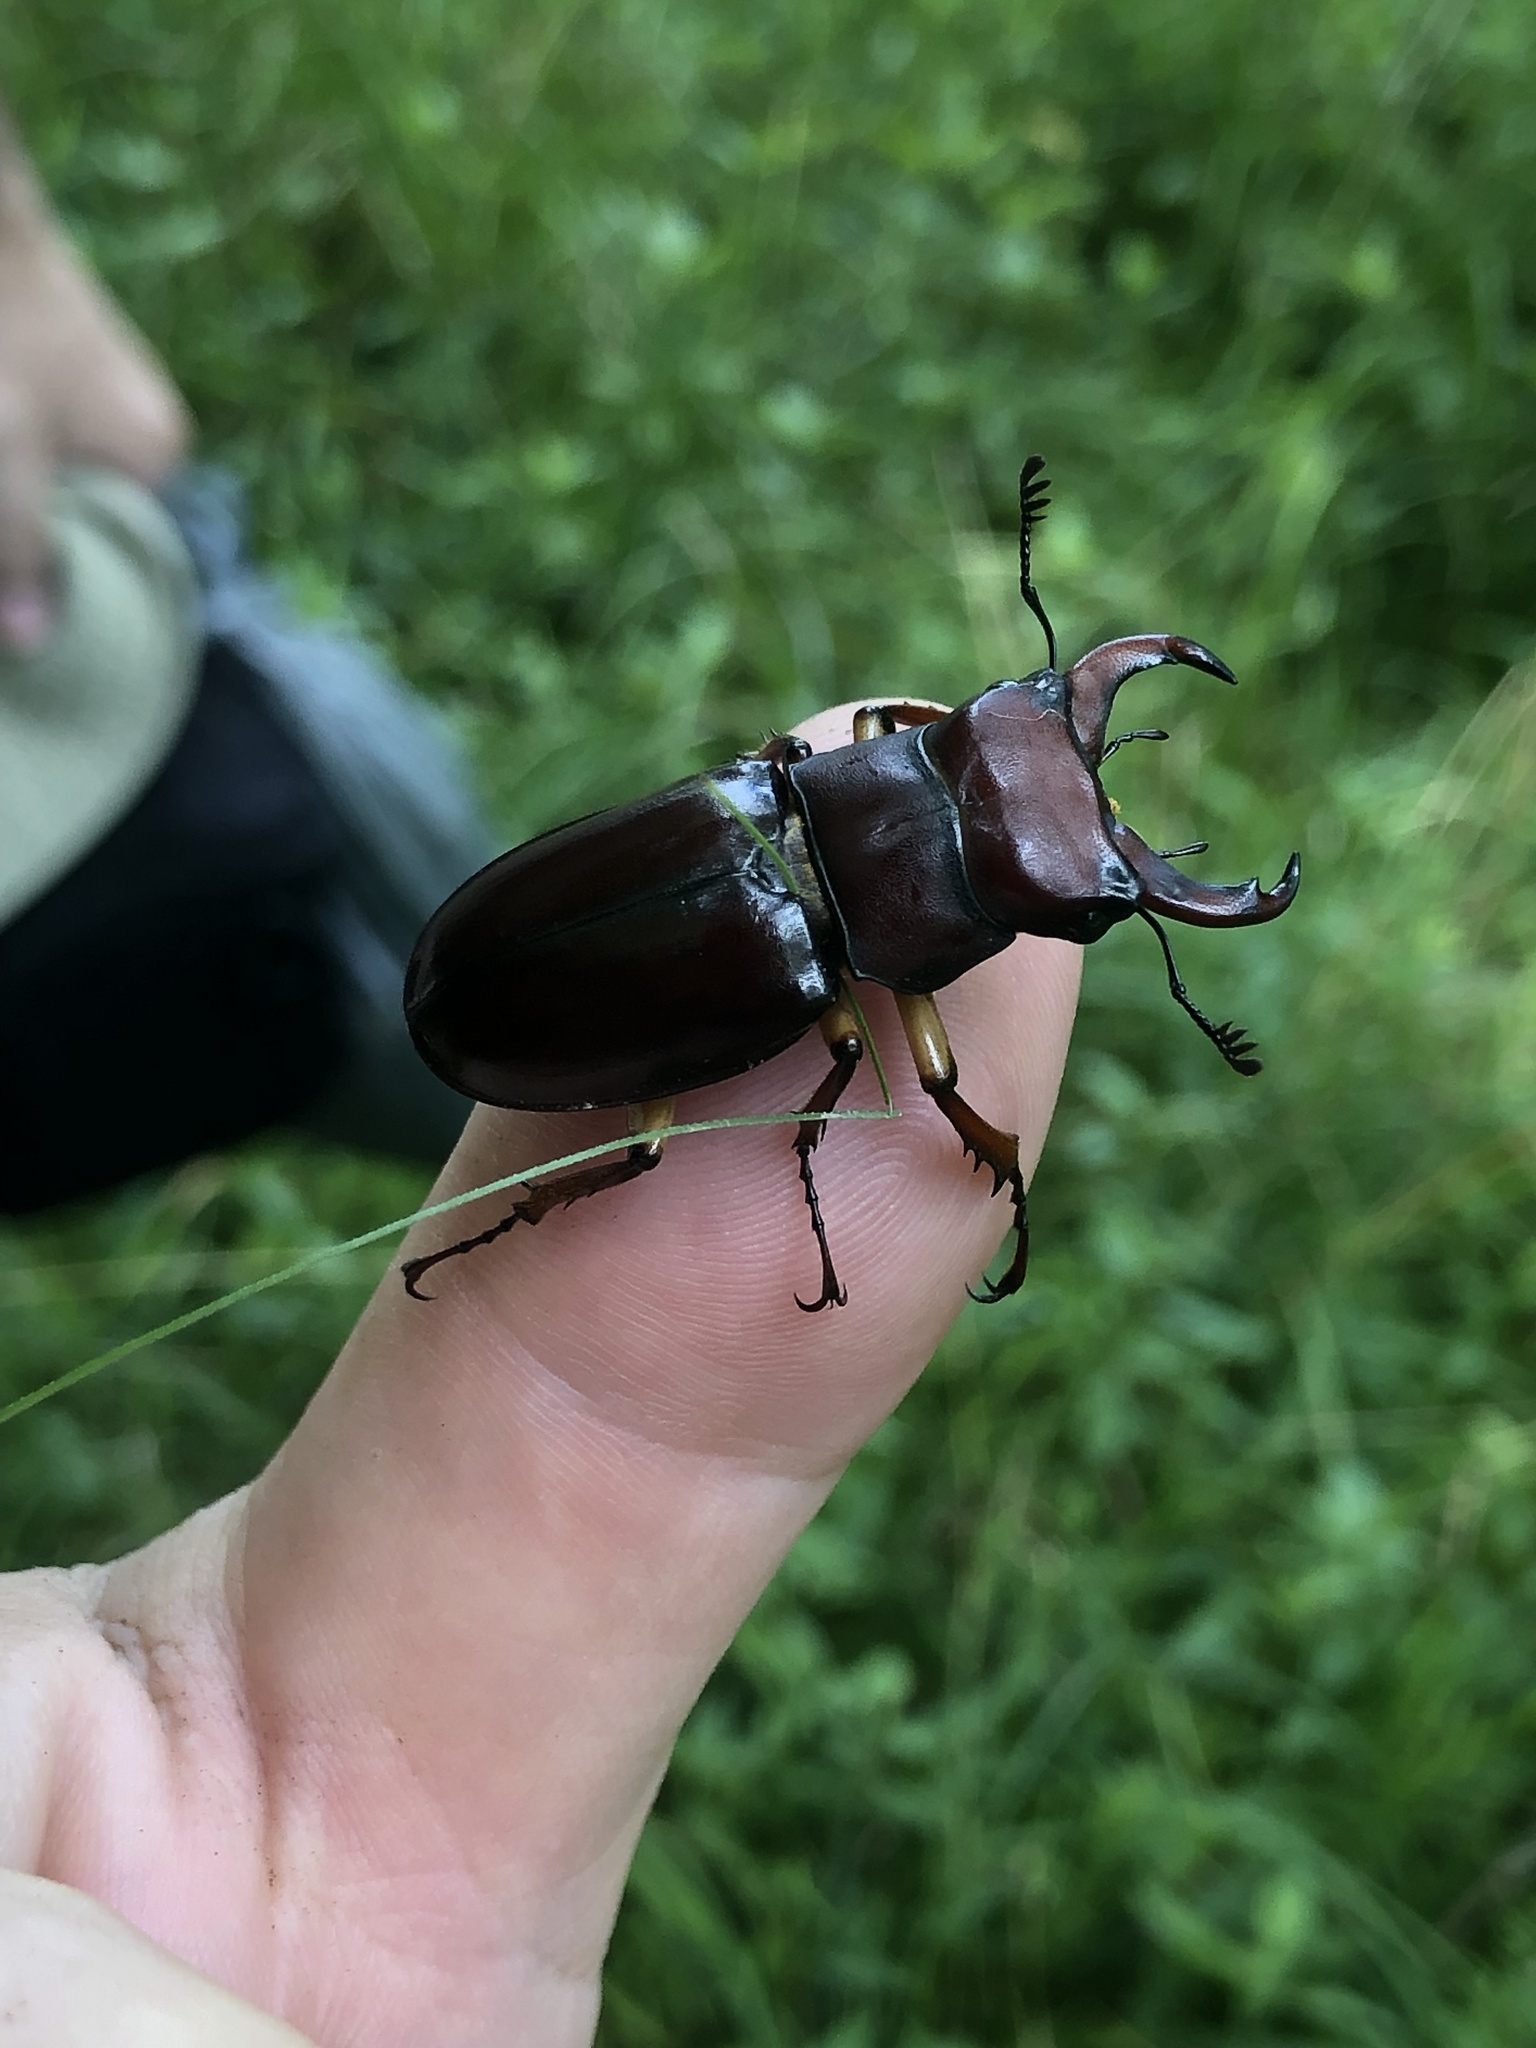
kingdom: Animalia
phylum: Arthropoda
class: Insecta
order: Coleoptera
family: Lucanidae
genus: Lucanus
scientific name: Lucanus capreolus
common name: Stag beetle
